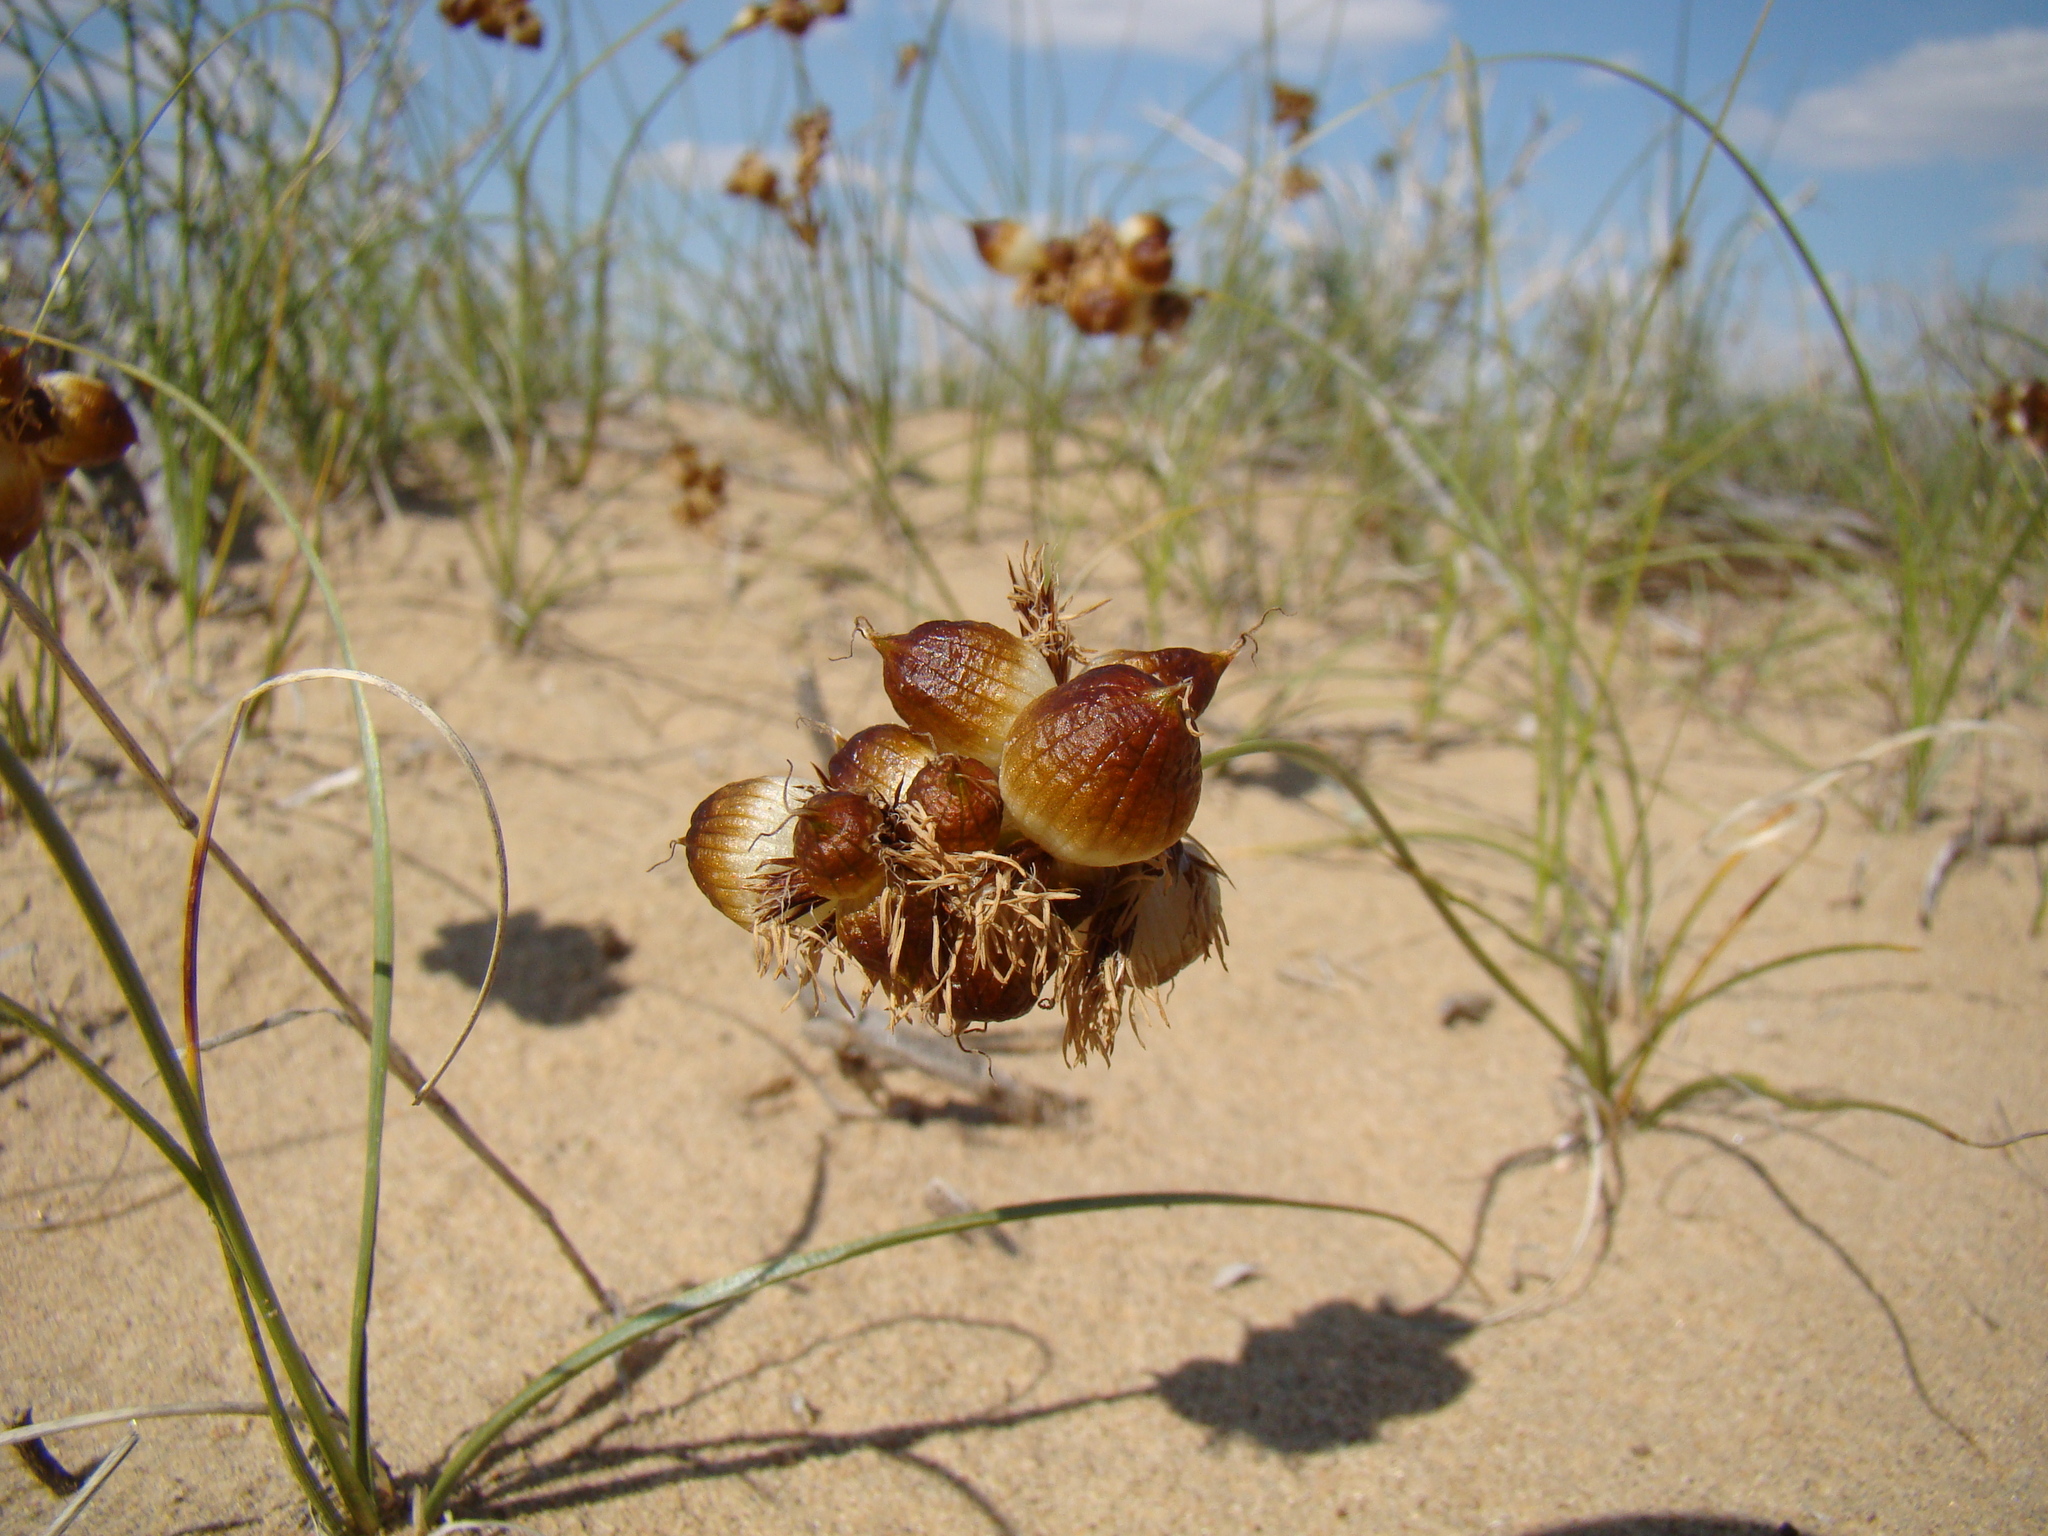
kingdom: Plantae
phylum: Tracheophyta
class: Liliopsida
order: Poales
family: Cyperaceae
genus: Carex
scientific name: Carex physodes
